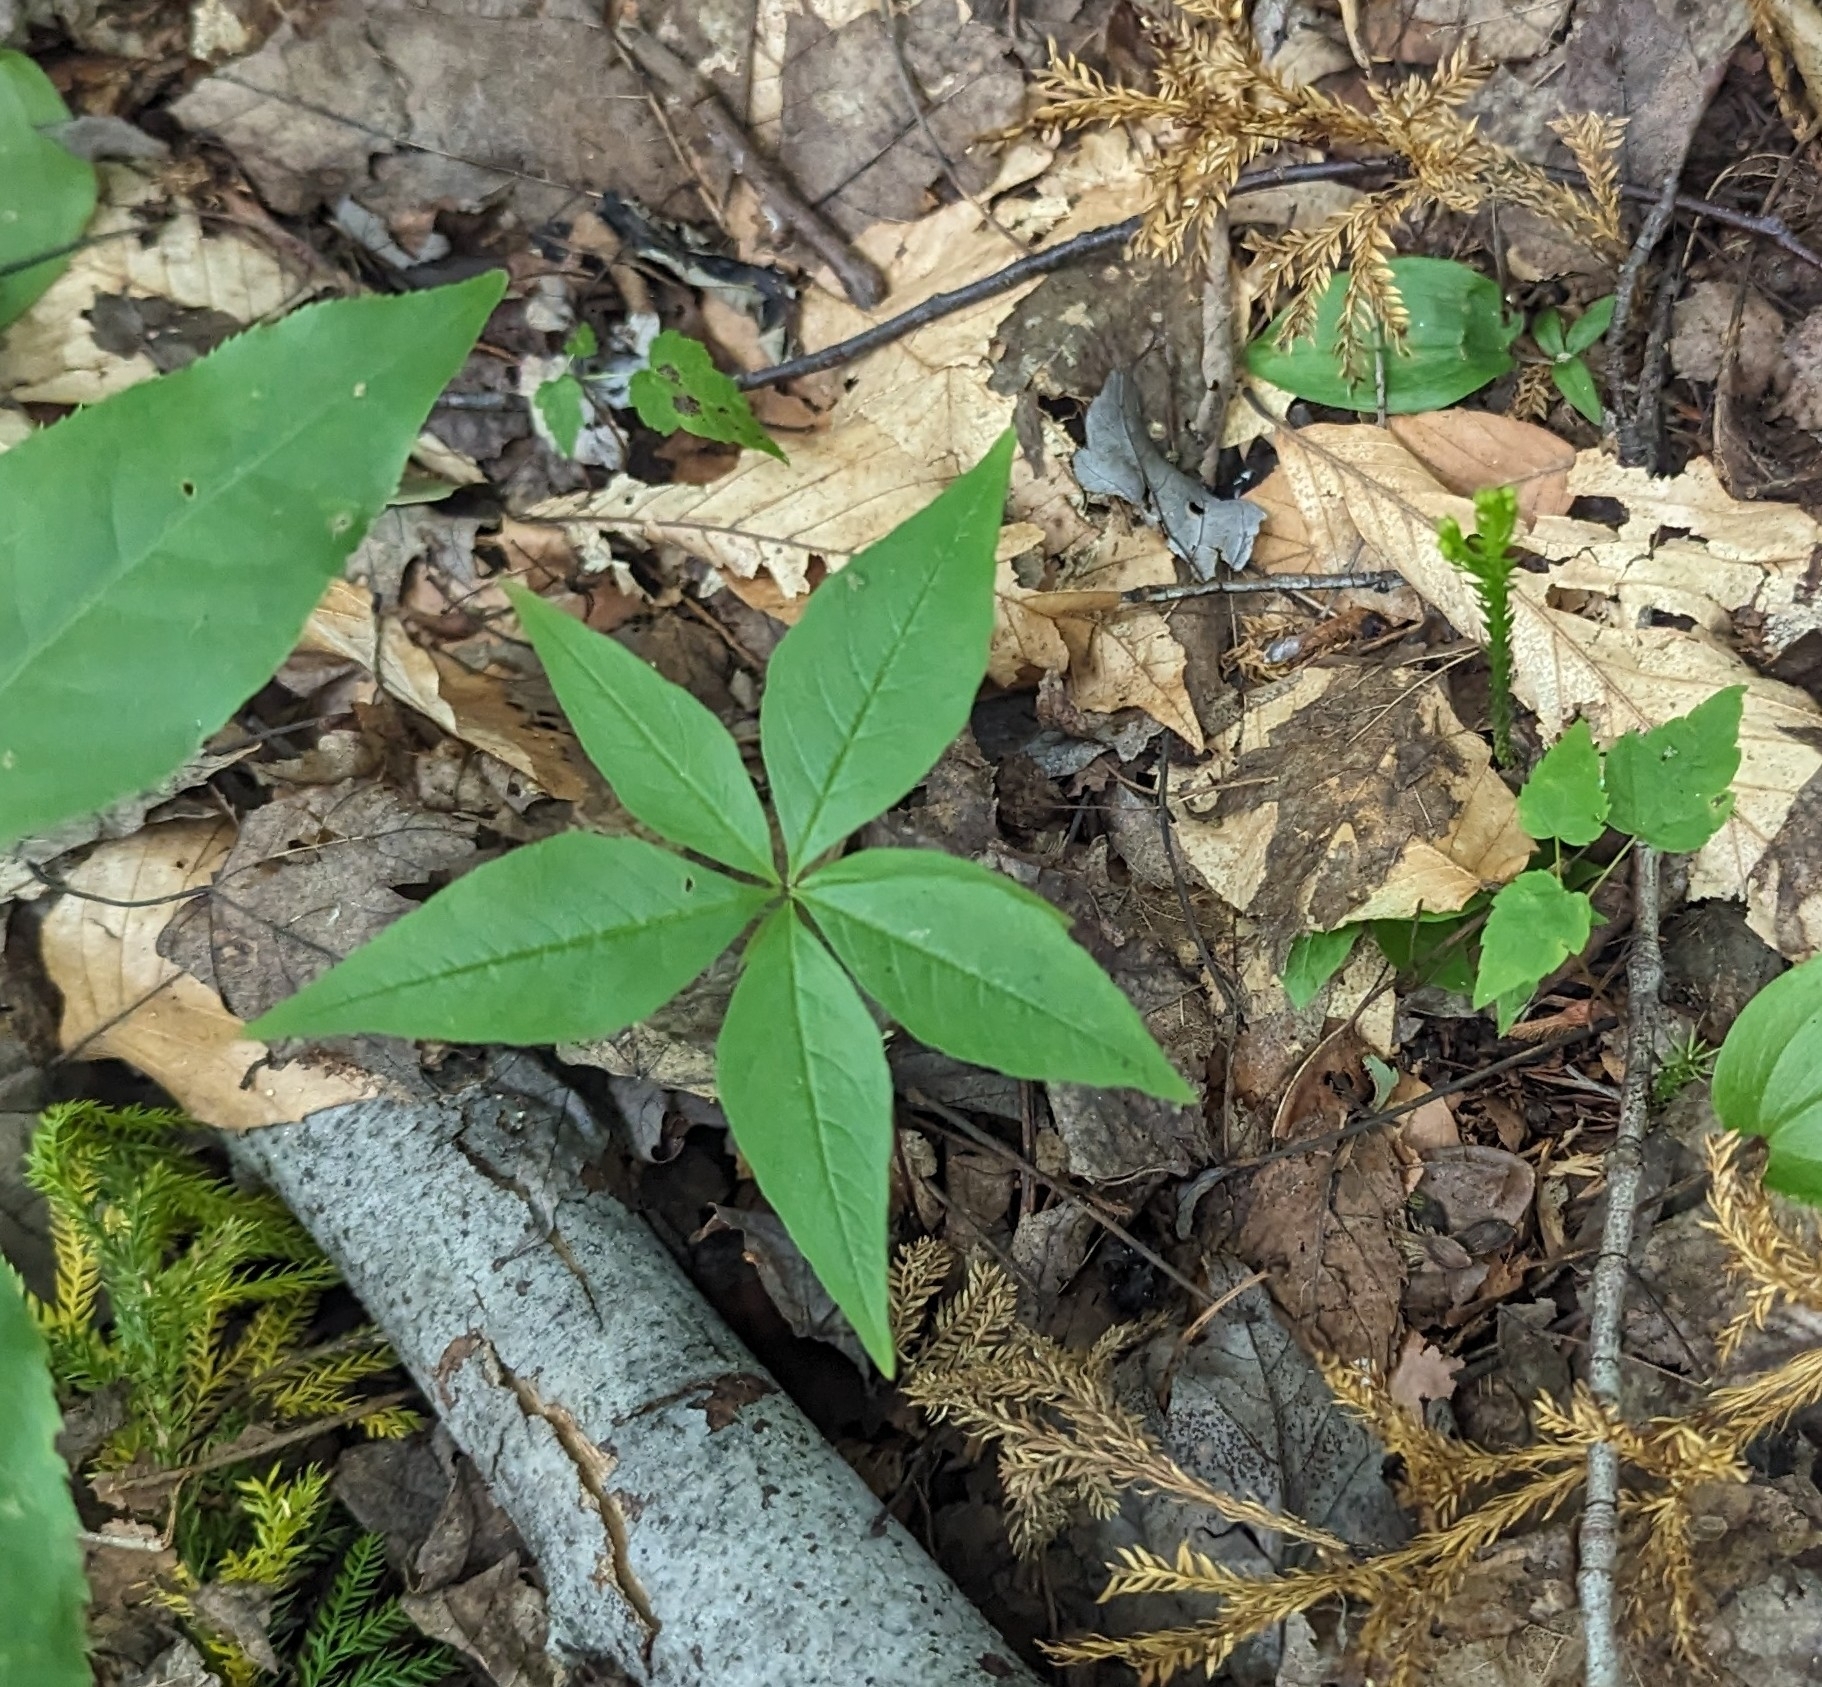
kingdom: Plantae
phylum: Tracheophyta
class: Magnoliopsida
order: Ericales
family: Primulaceae
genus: Lysimachia
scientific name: Lysimachia borealis
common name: American starflower
